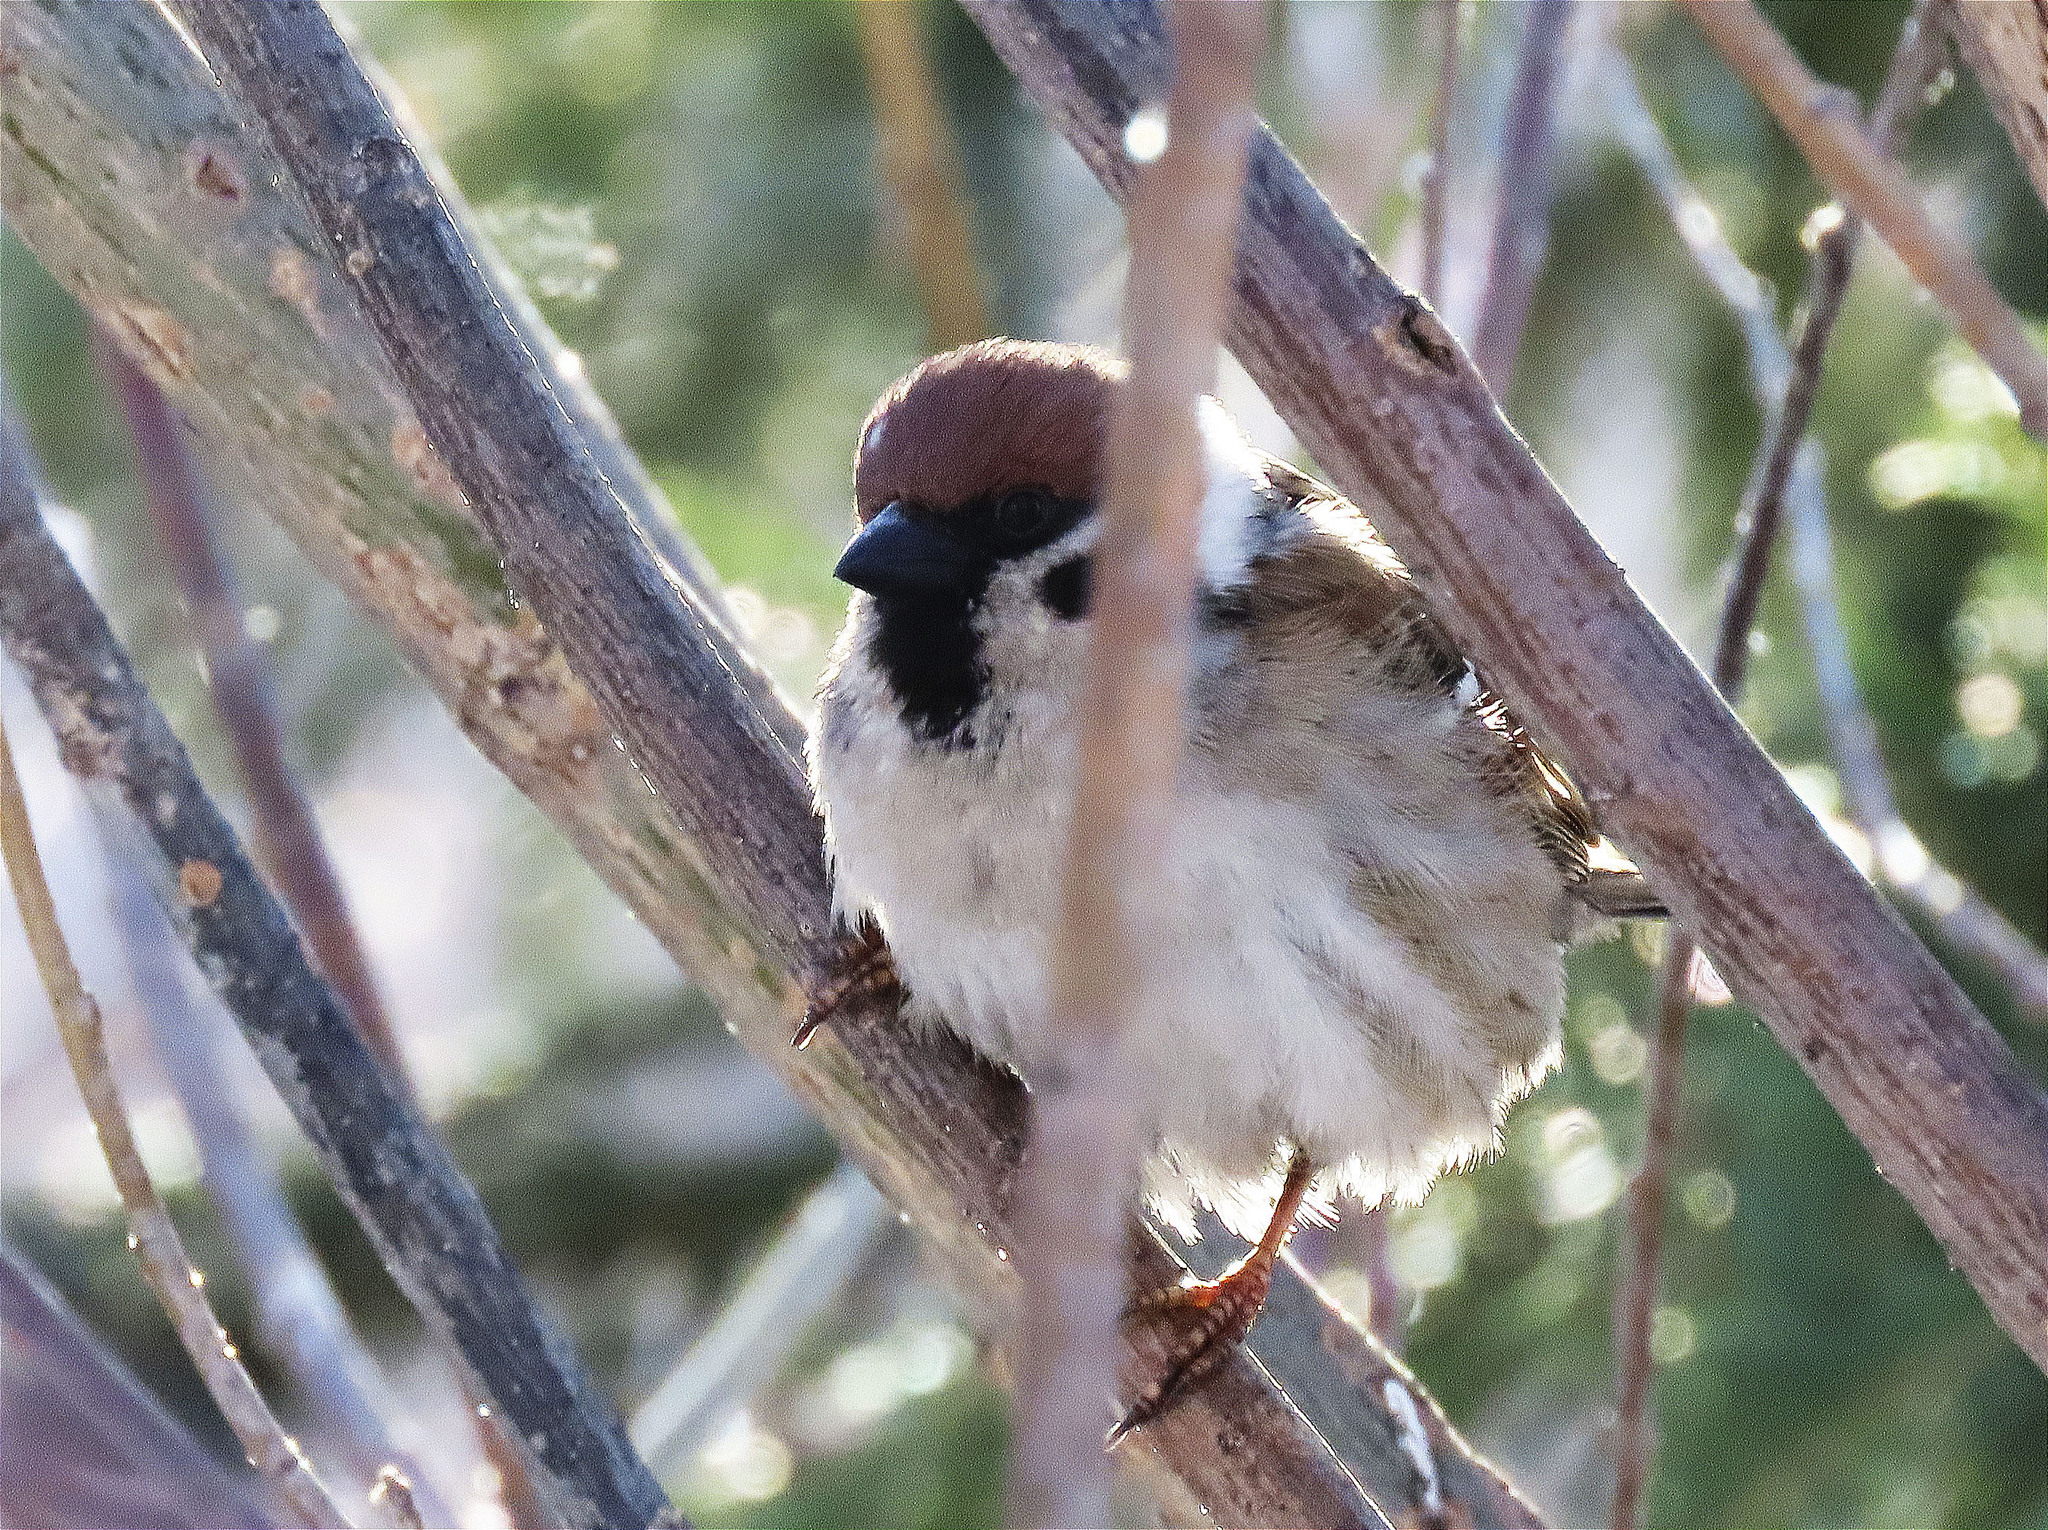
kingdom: Animalia
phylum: Chordata
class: Aves
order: Passeriformes
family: Passeridae
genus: Passer
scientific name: Passer montanus
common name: Eurasian tree sparrow
